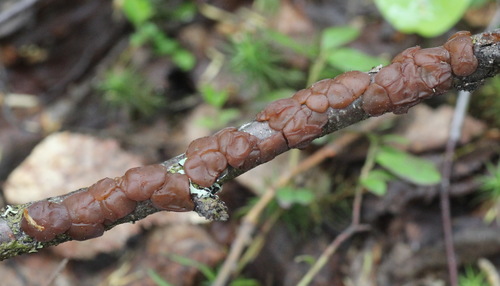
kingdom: Fungi
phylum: Basidiomycota
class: Agaricomycetes
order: Auriculariales
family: Auriculariaceae
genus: Exidia
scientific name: Exidia repanda
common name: Birch jelly
